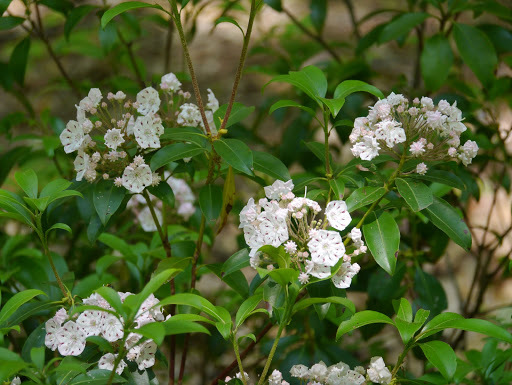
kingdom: Plantae
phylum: Tracheophyta
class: Magnoliopsida
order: Ericales
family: Ericaceae
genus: Kalmia
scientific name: Kalmia latifolia
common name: Mountain-laurel
